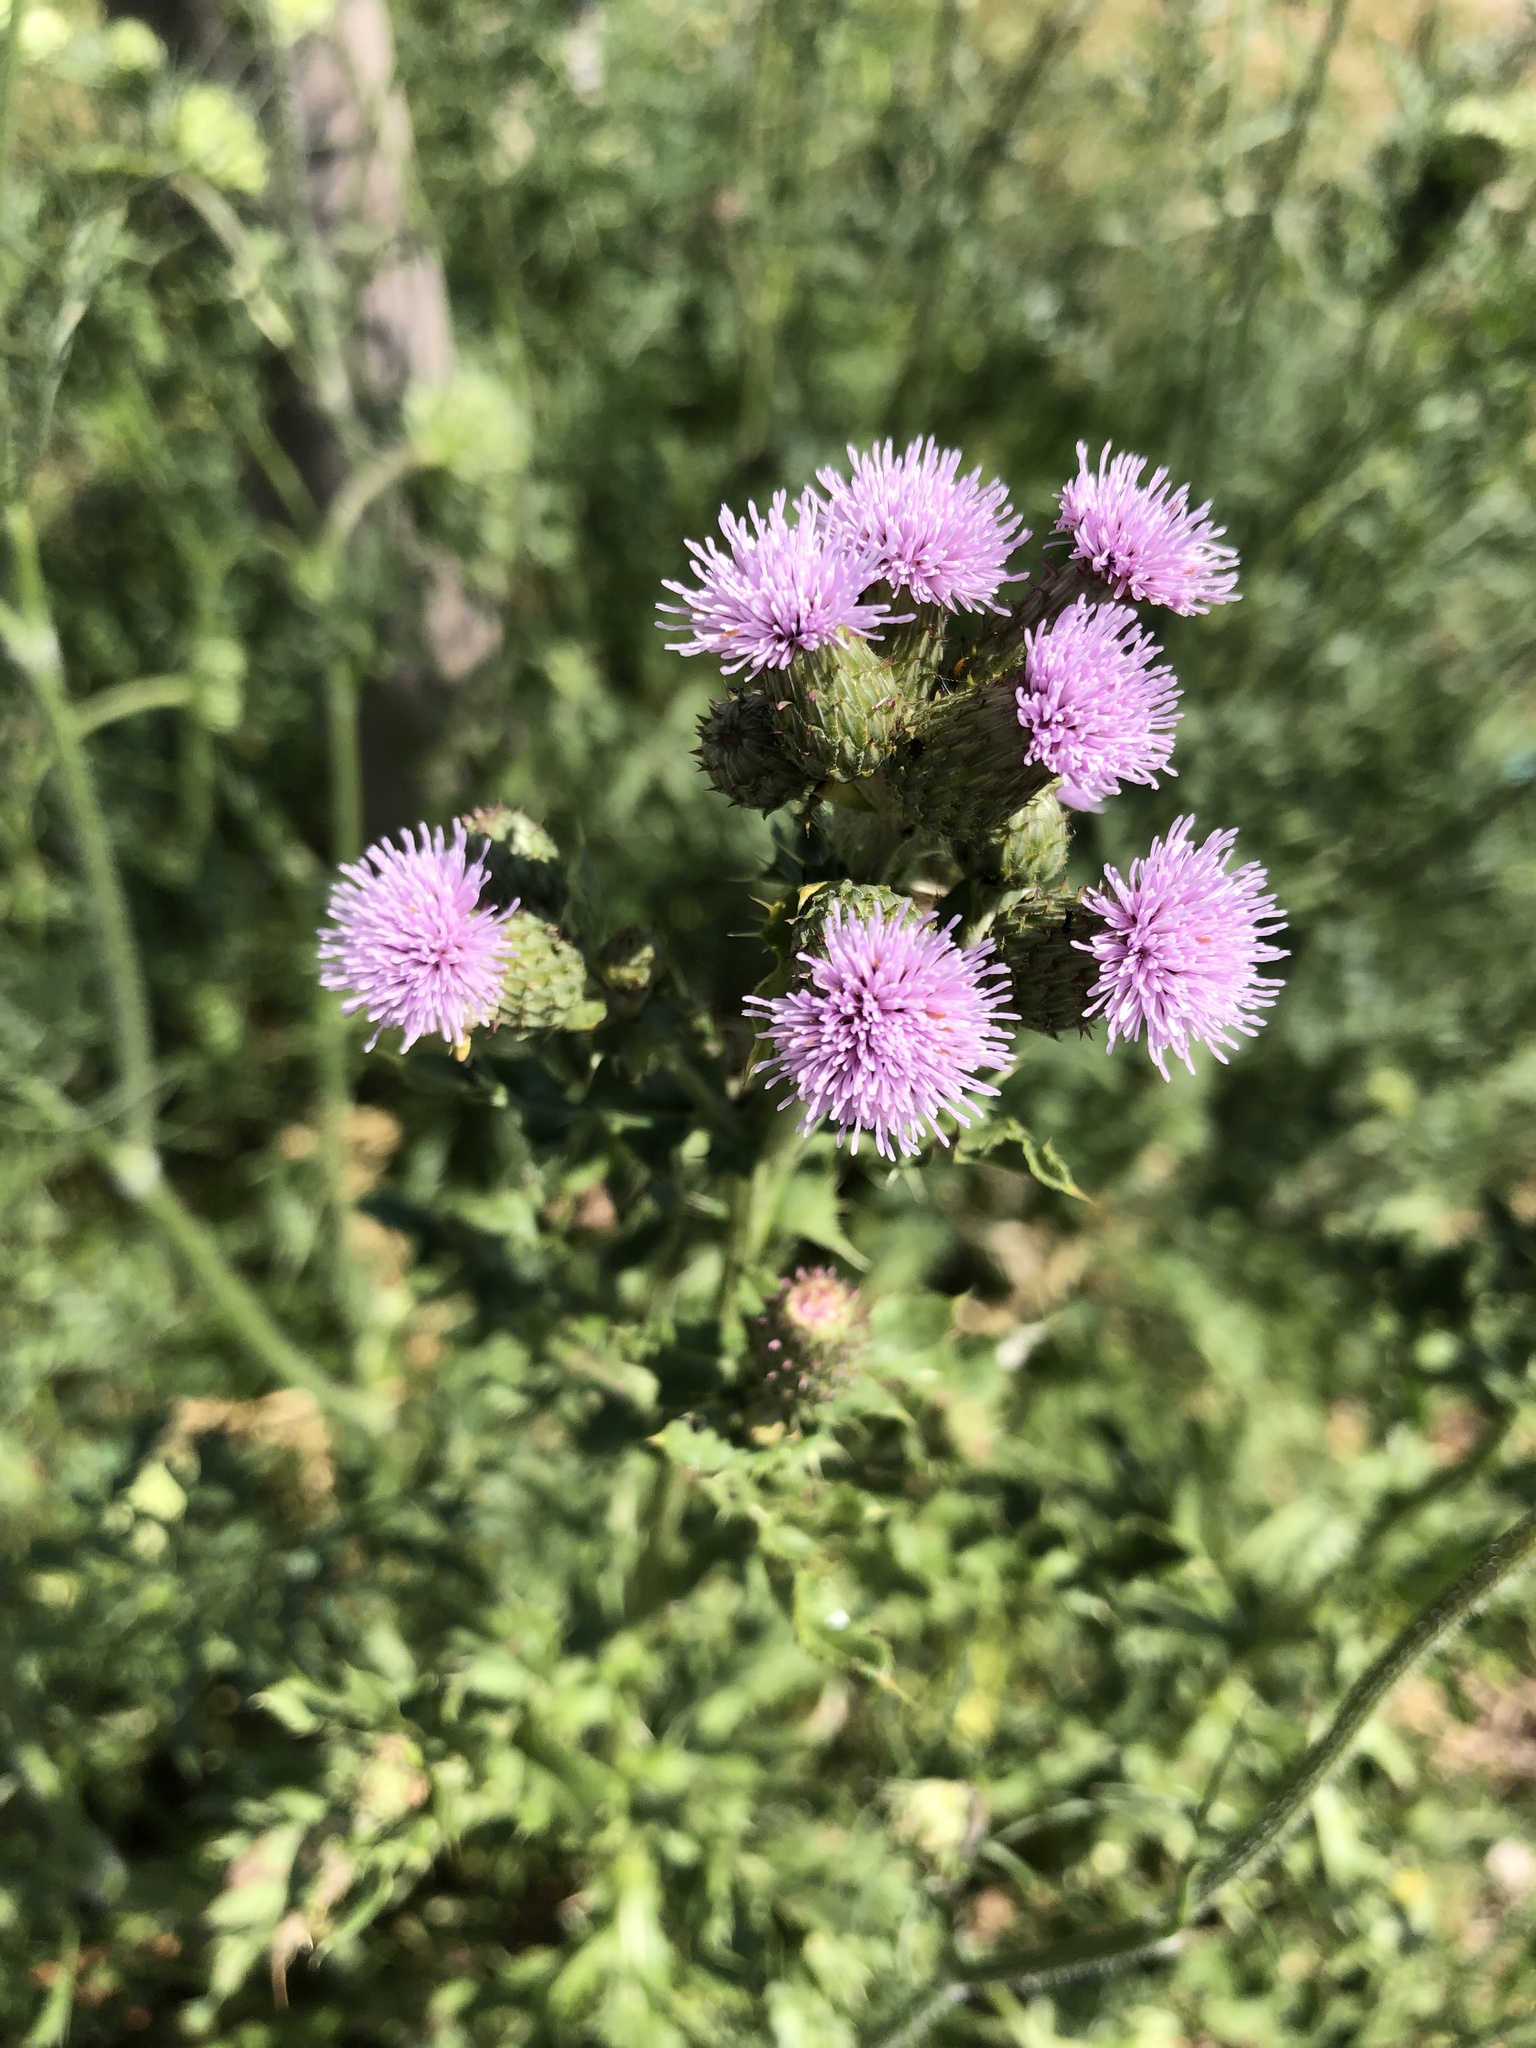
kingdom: Plantae
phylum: Tracheophyta
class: Magnoliopsida
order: Asterales
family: Asteraceae
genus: Cirsium
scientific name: Cirsium arvense
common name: Creeping thistle
